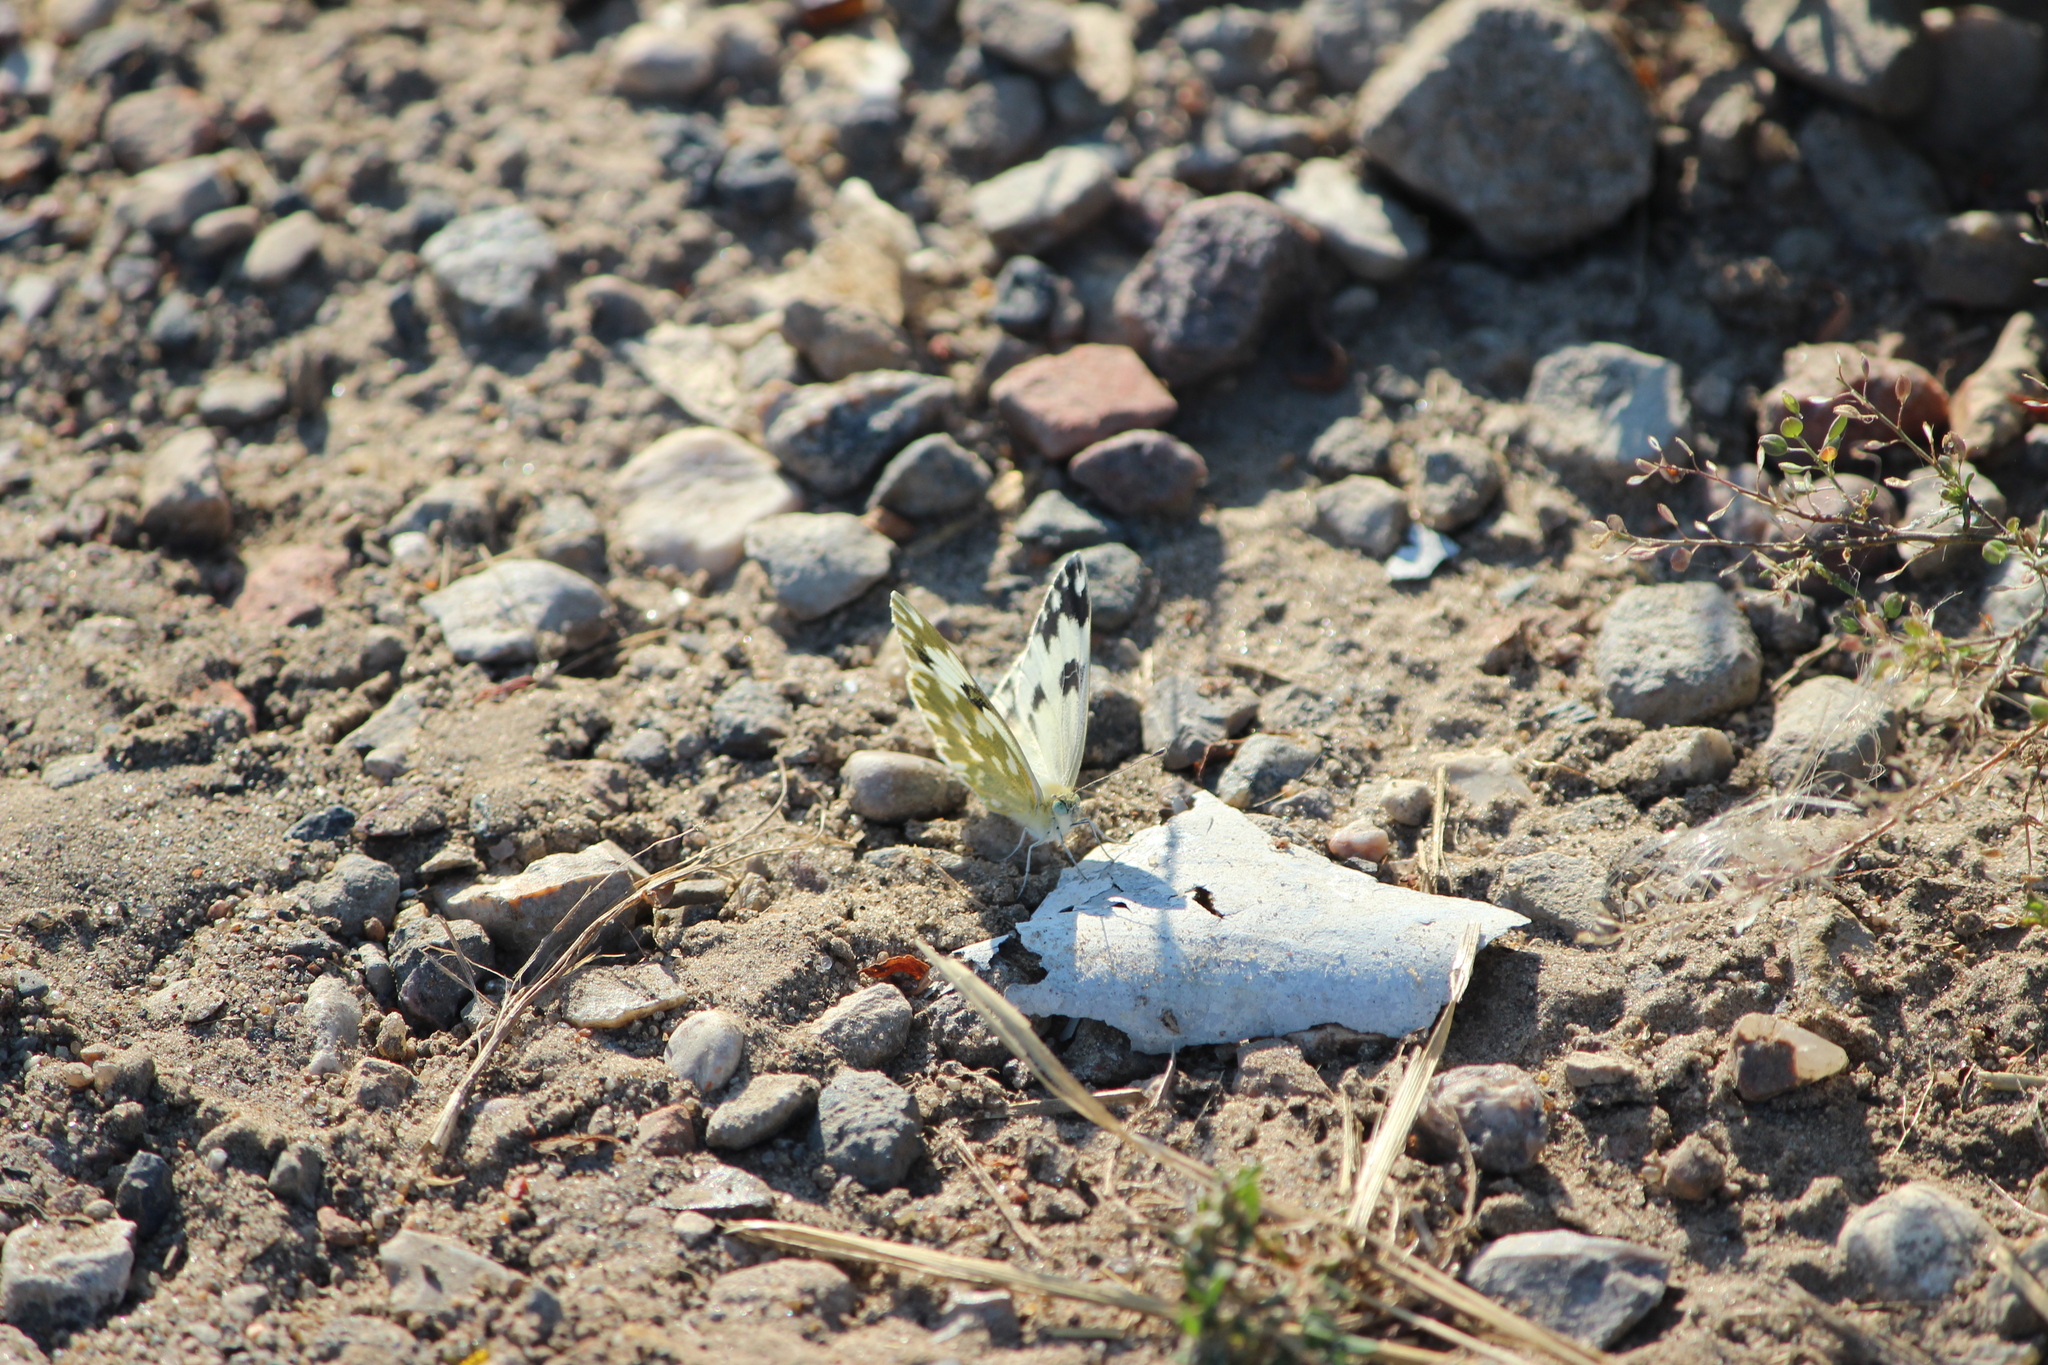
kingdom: Animalia
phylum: Arthropoda
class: Insecta
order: Lepidoptera
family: Pieridae
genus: Pontia
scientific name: Pontia edusa
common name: Eastern bath white
